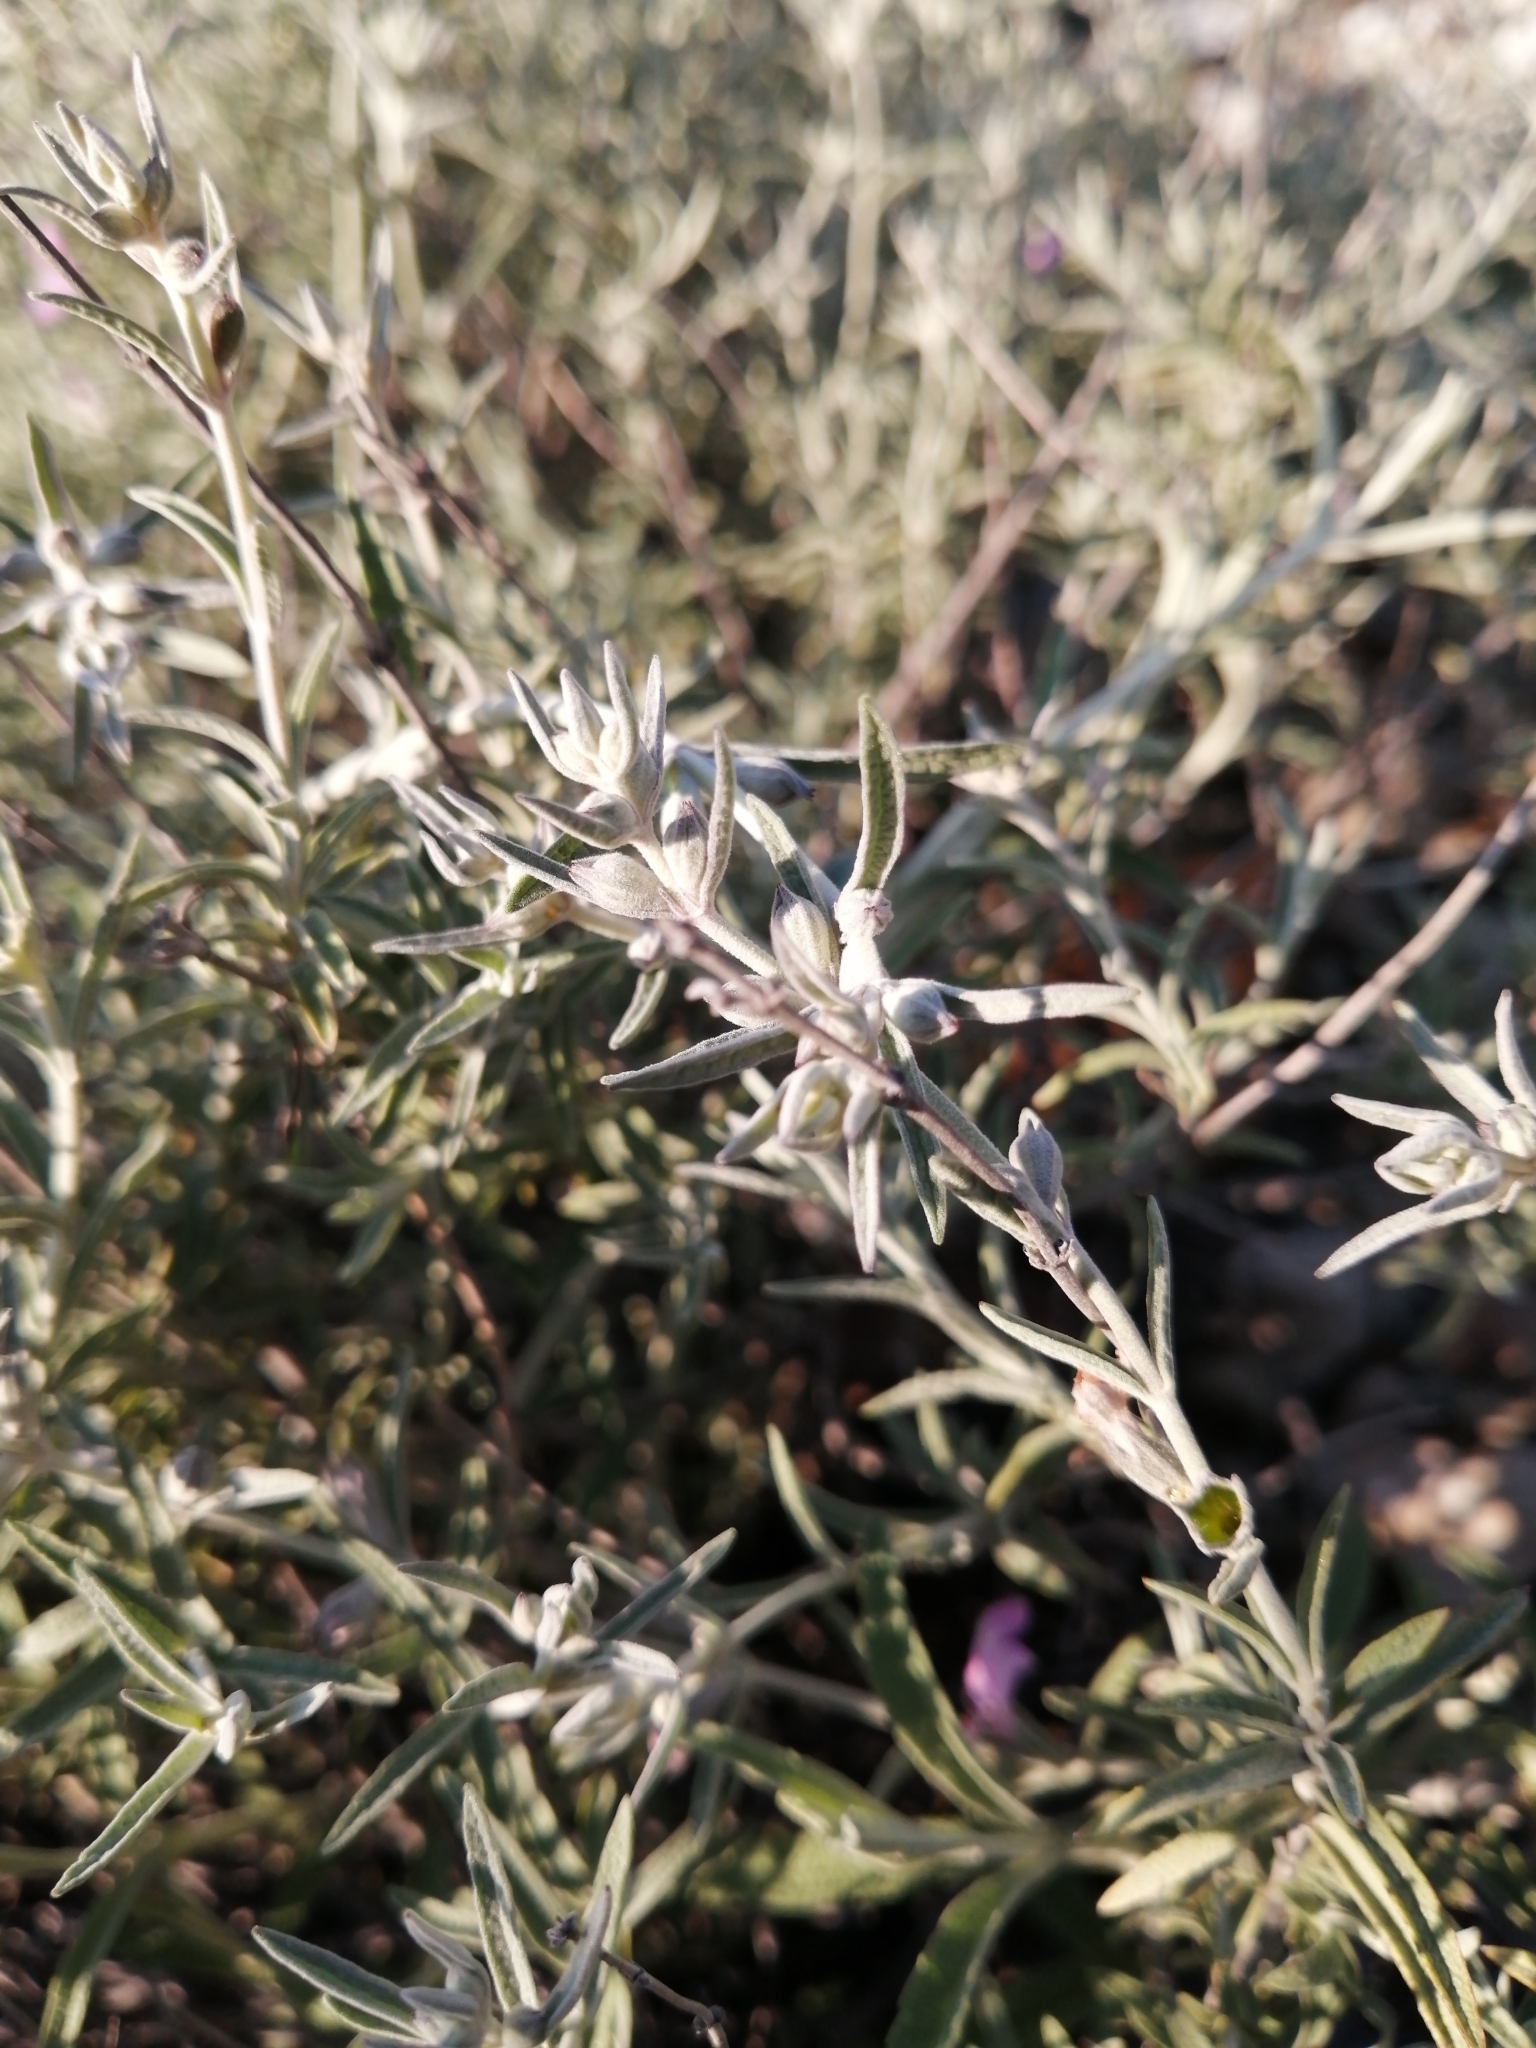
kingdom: Plantae
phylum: Tracheophyta
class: Magnoliopsida
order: Lamiales
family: Lamiaceae
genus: Stachys
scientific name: Stachys rugosa
